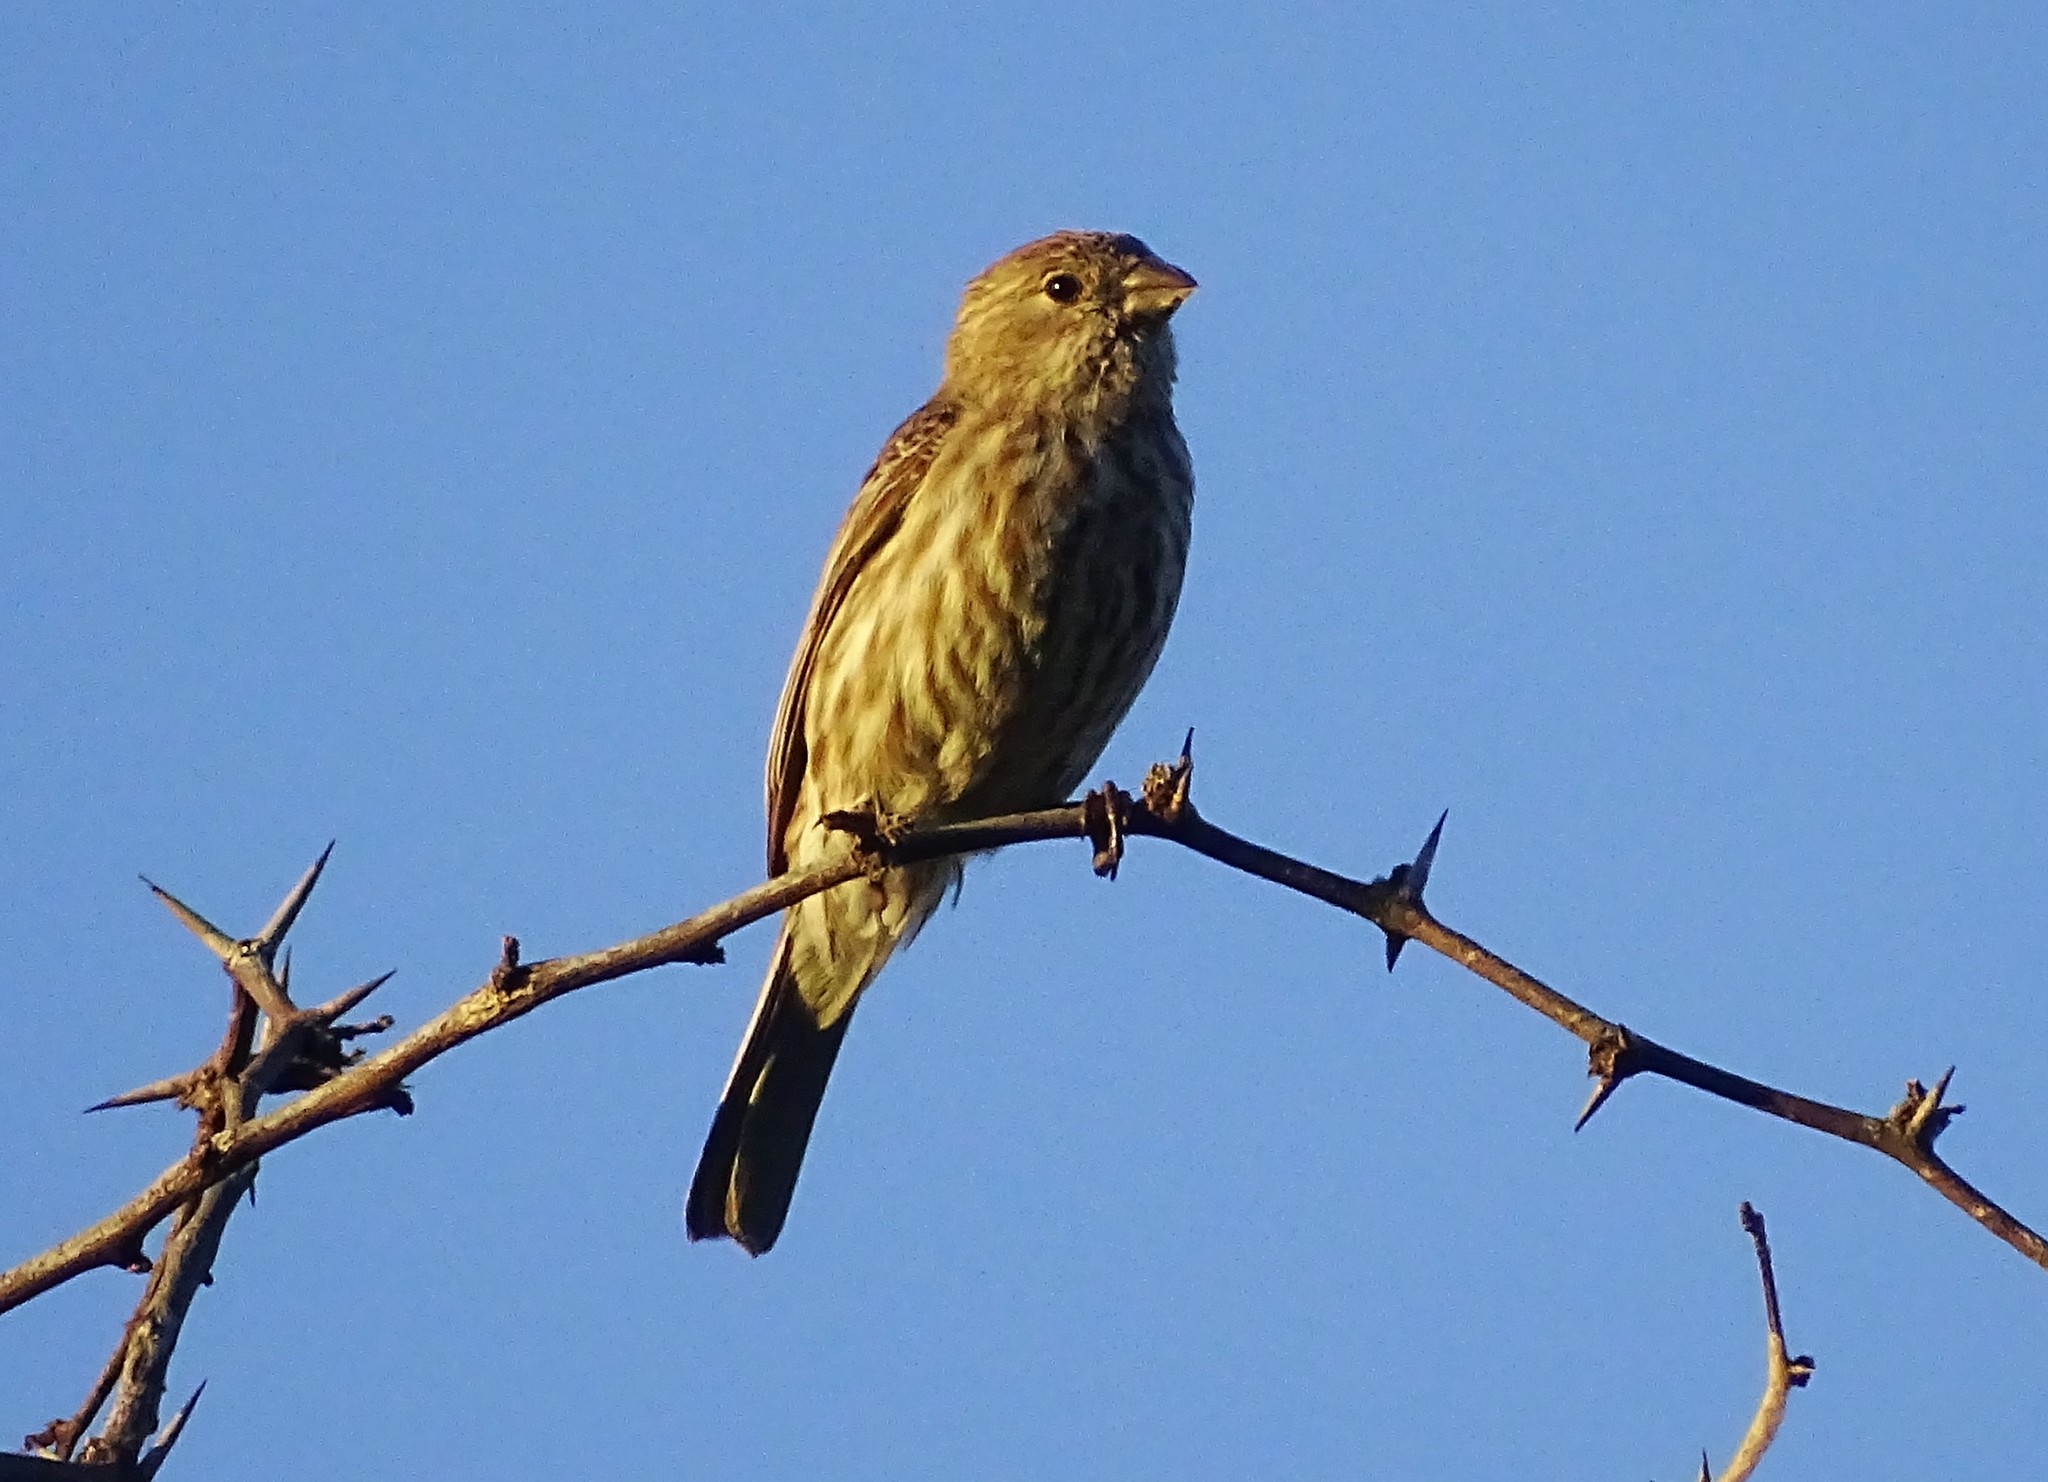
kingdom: Animalia
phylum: Chordata
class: Aves
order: Passeriformes
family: Fringillidae
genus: Haemorhous
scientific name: Haemorhous mexicanus
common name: House finch
